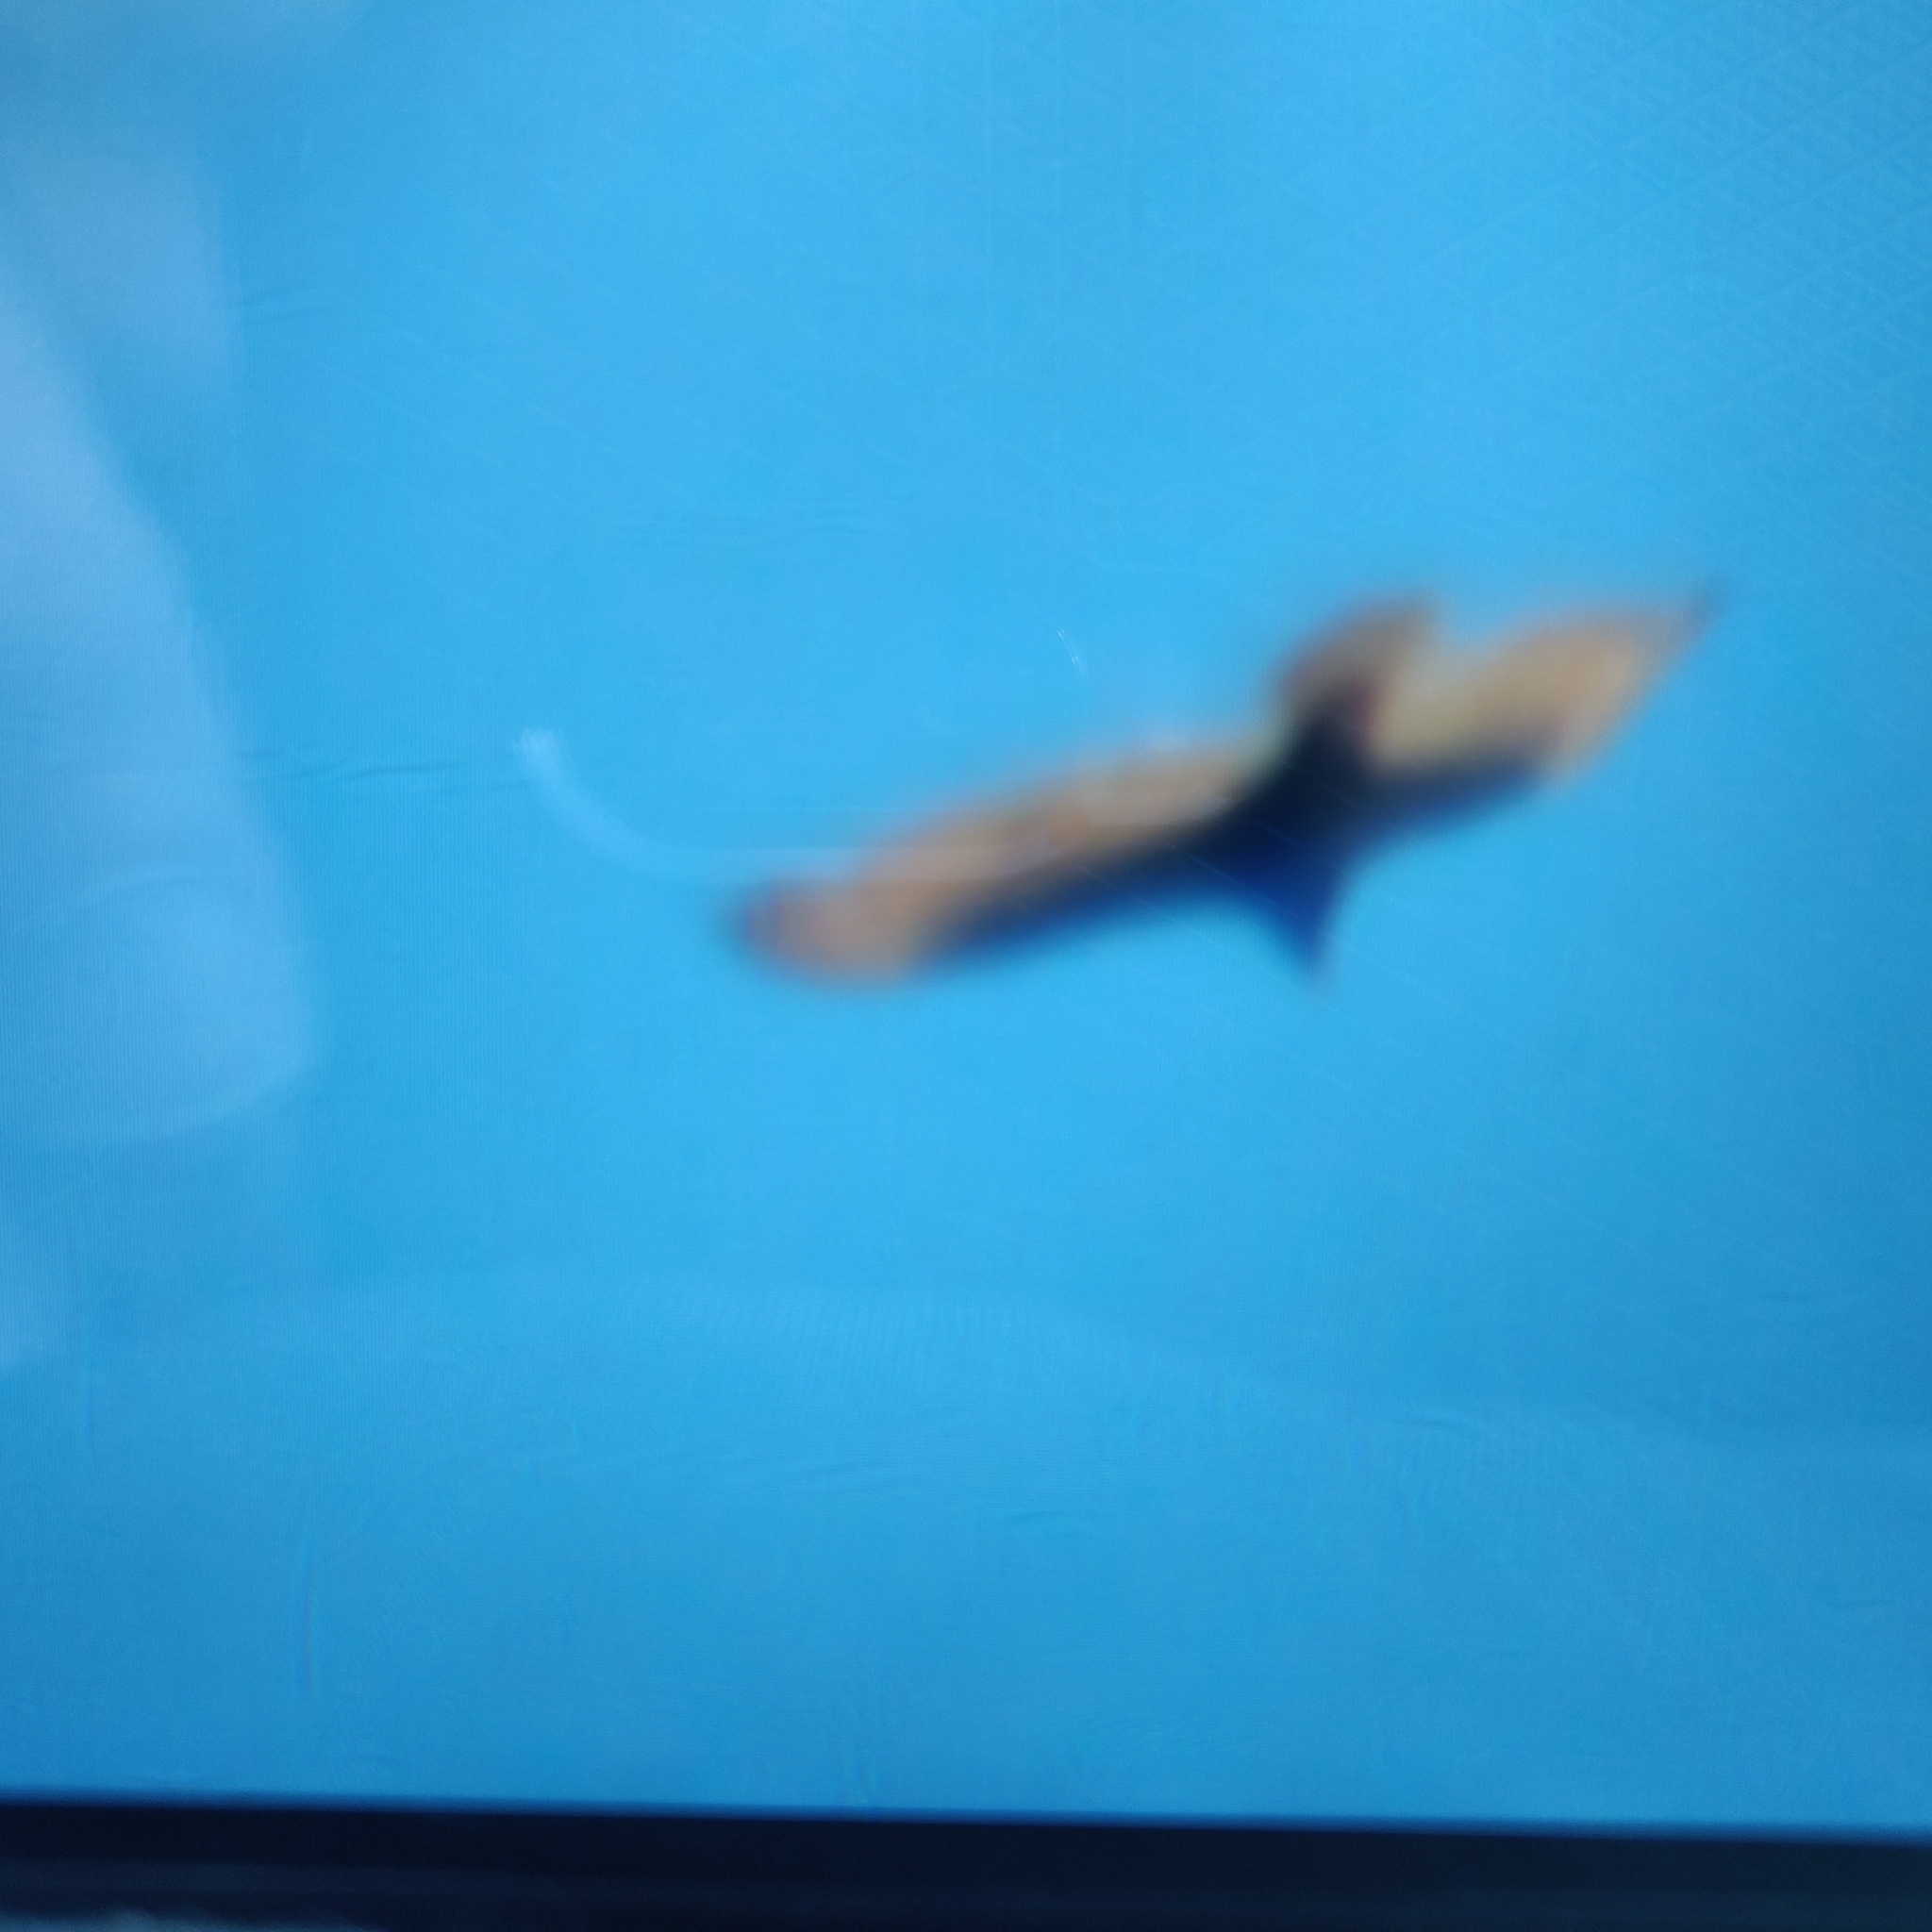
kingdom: Animalia
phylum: Chordata
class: Aves
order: Accipitriformes
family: Cathartidae
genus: Cathartes
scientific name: Cathartes aura
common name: Turkey vulture
